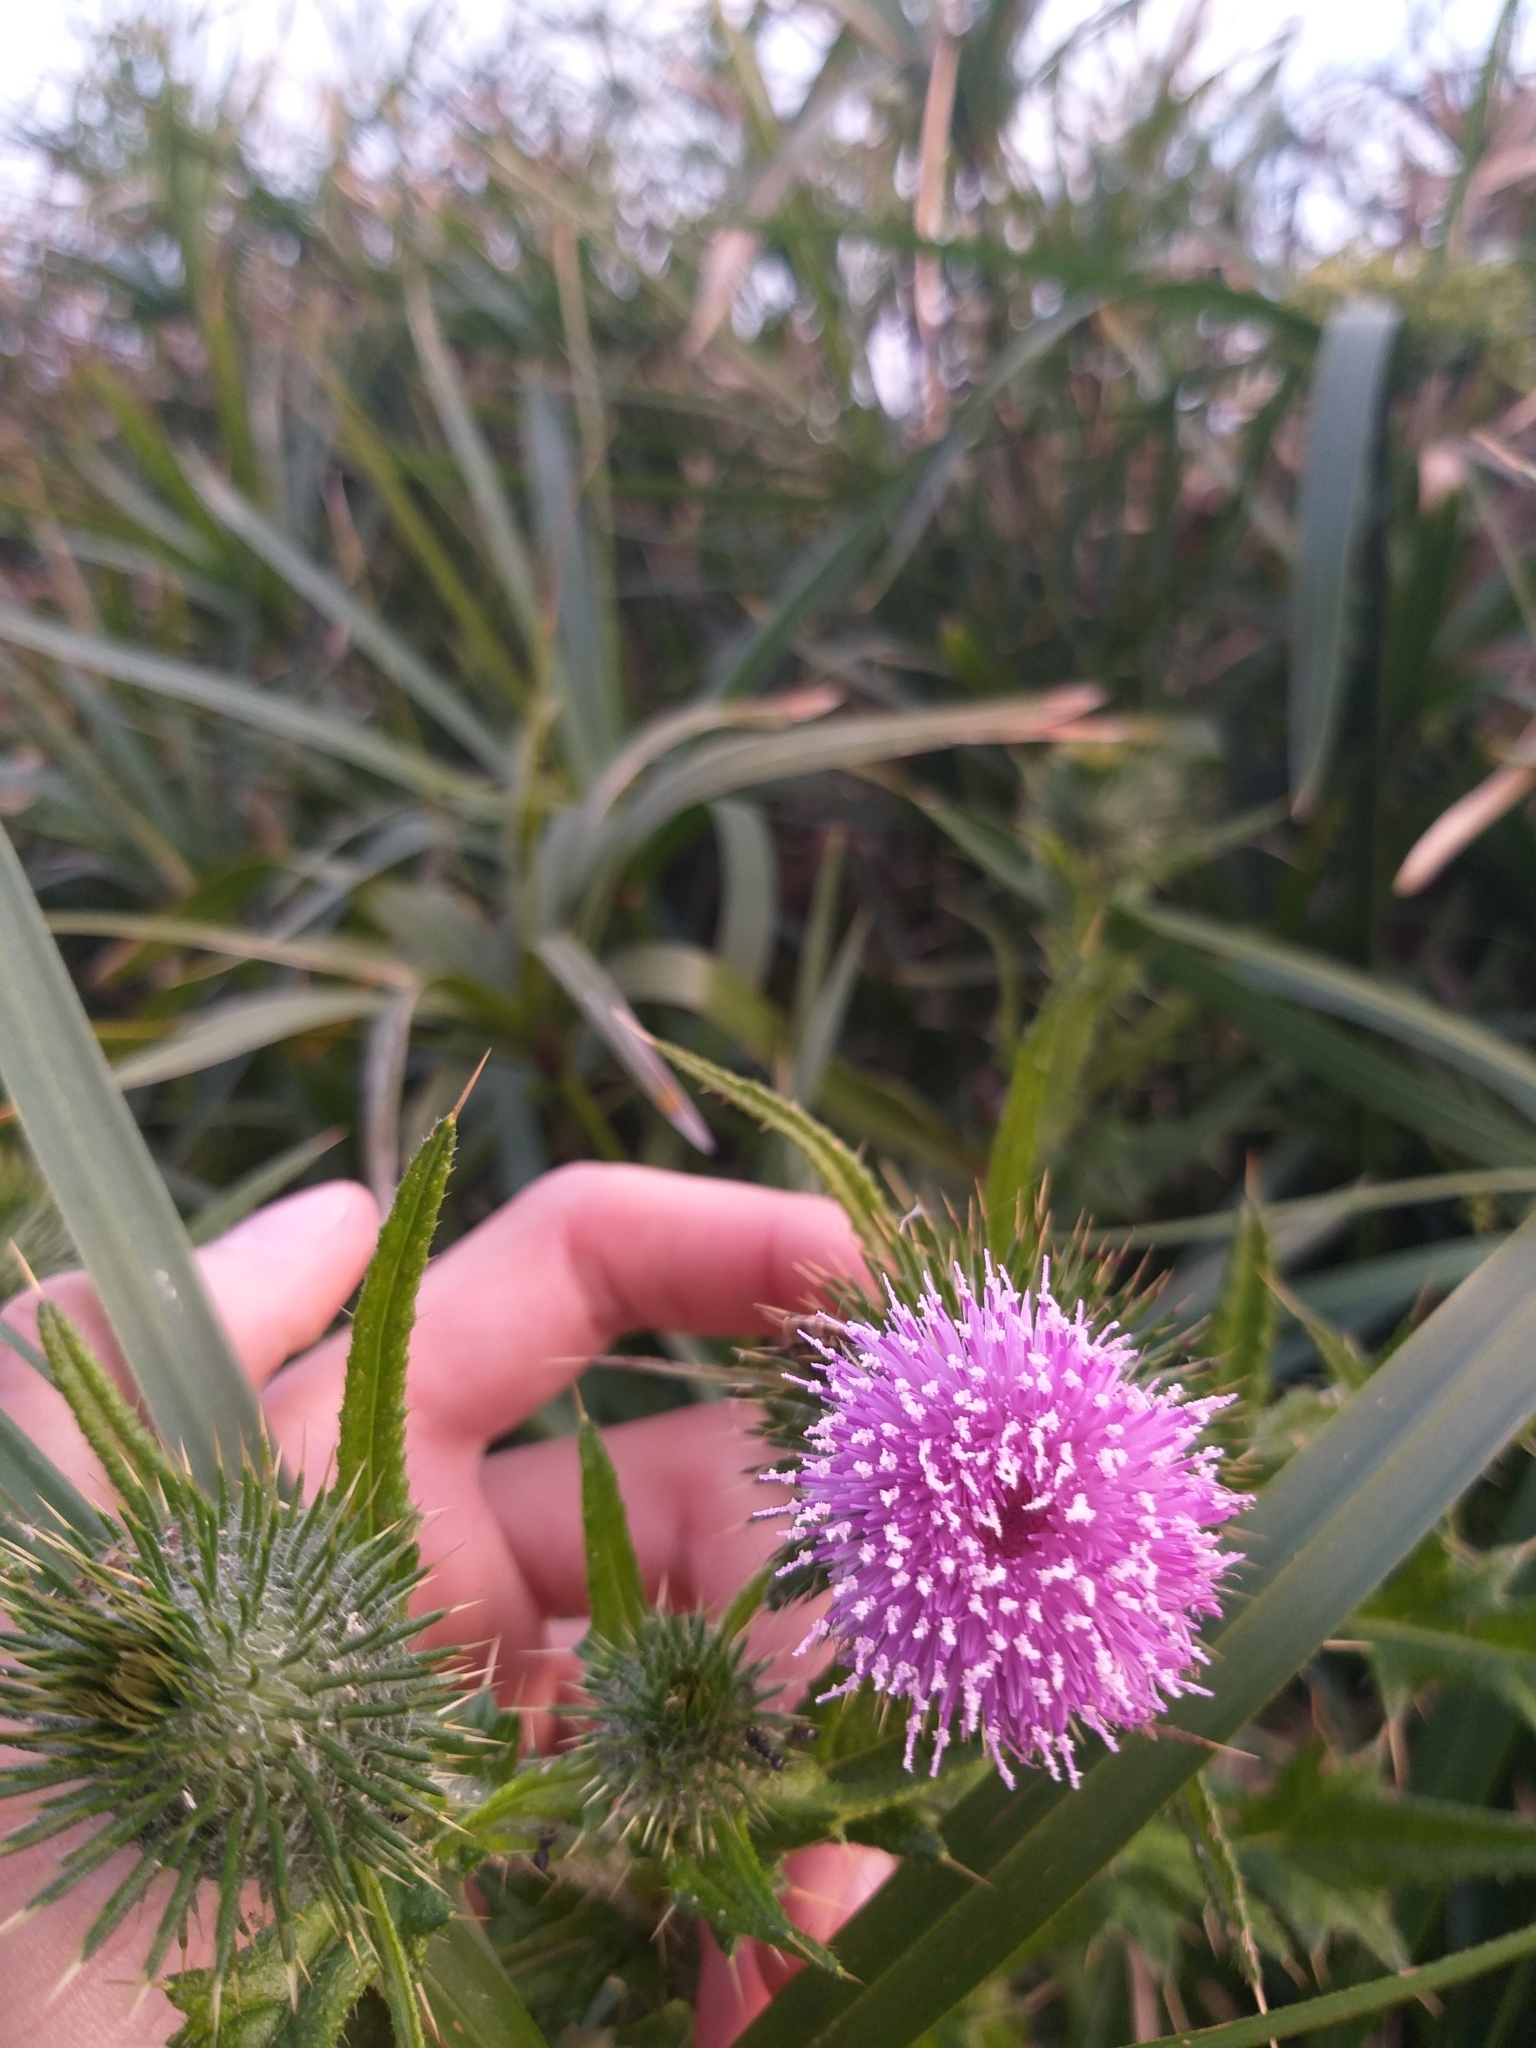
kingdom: Plantae
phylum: Tracheophyta
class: Magnoliopsida
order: Asterales
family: Asteraceae
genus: Cirsium
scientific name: Cirsium vulgare
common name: Bull thistle
